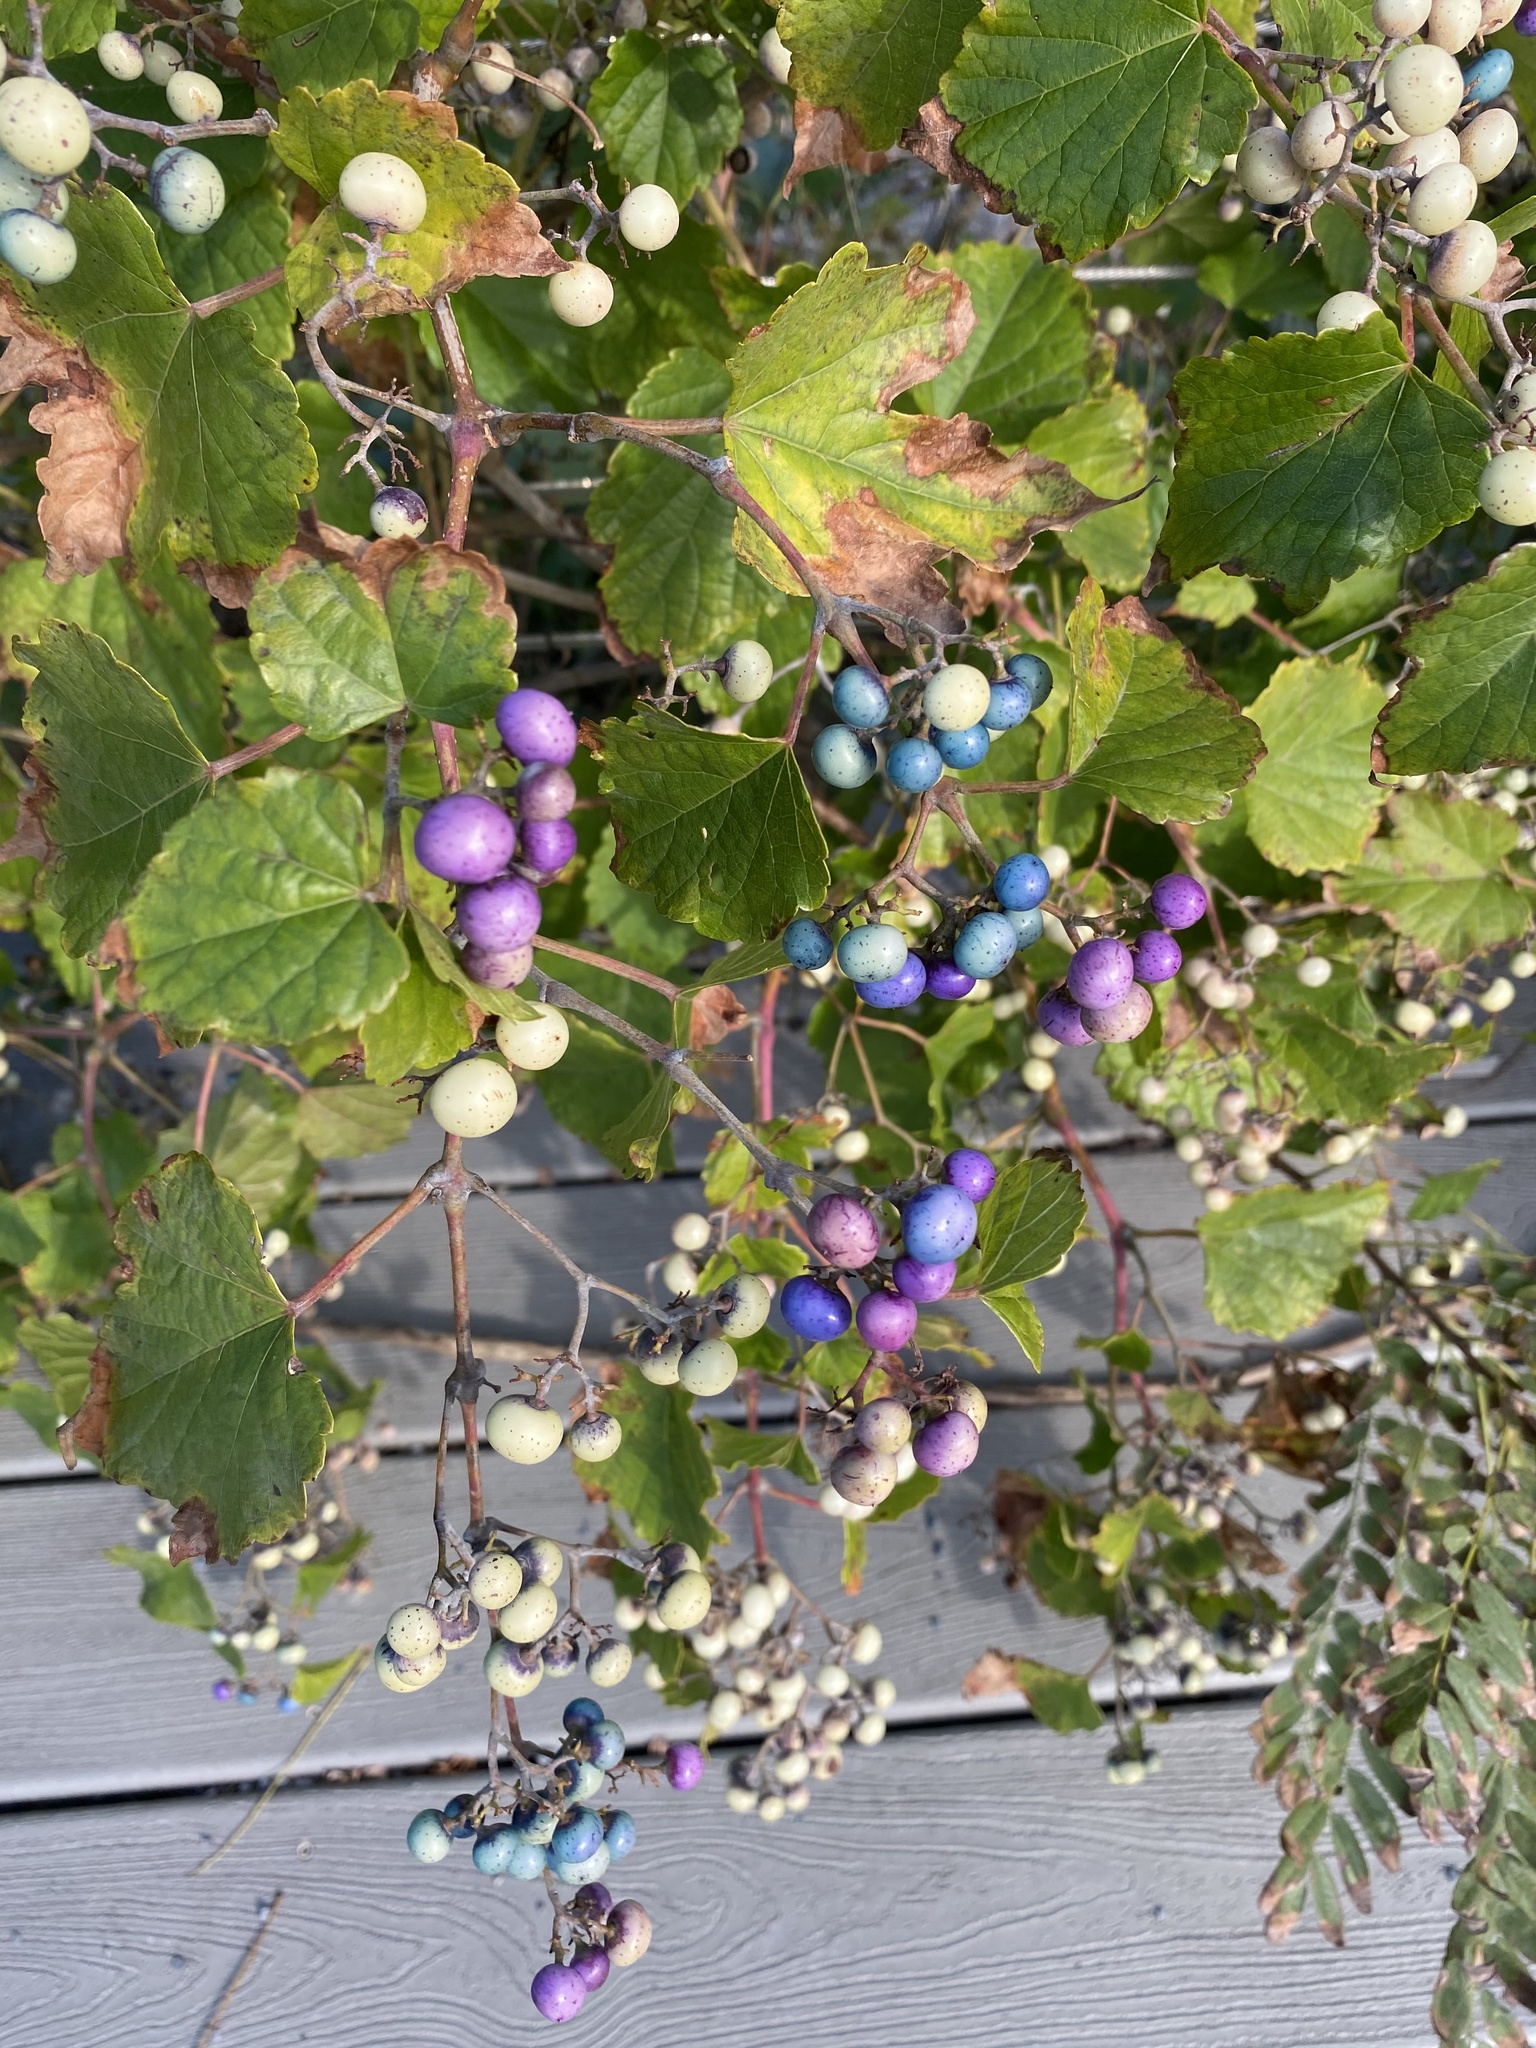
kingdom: Plantae
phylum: Tracheophyta
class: Magnoliopsida
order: Vitales
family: Vitaceae
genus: Ampelopsis
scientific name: Ampelopsis glandulosa
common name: Amur peppervine
